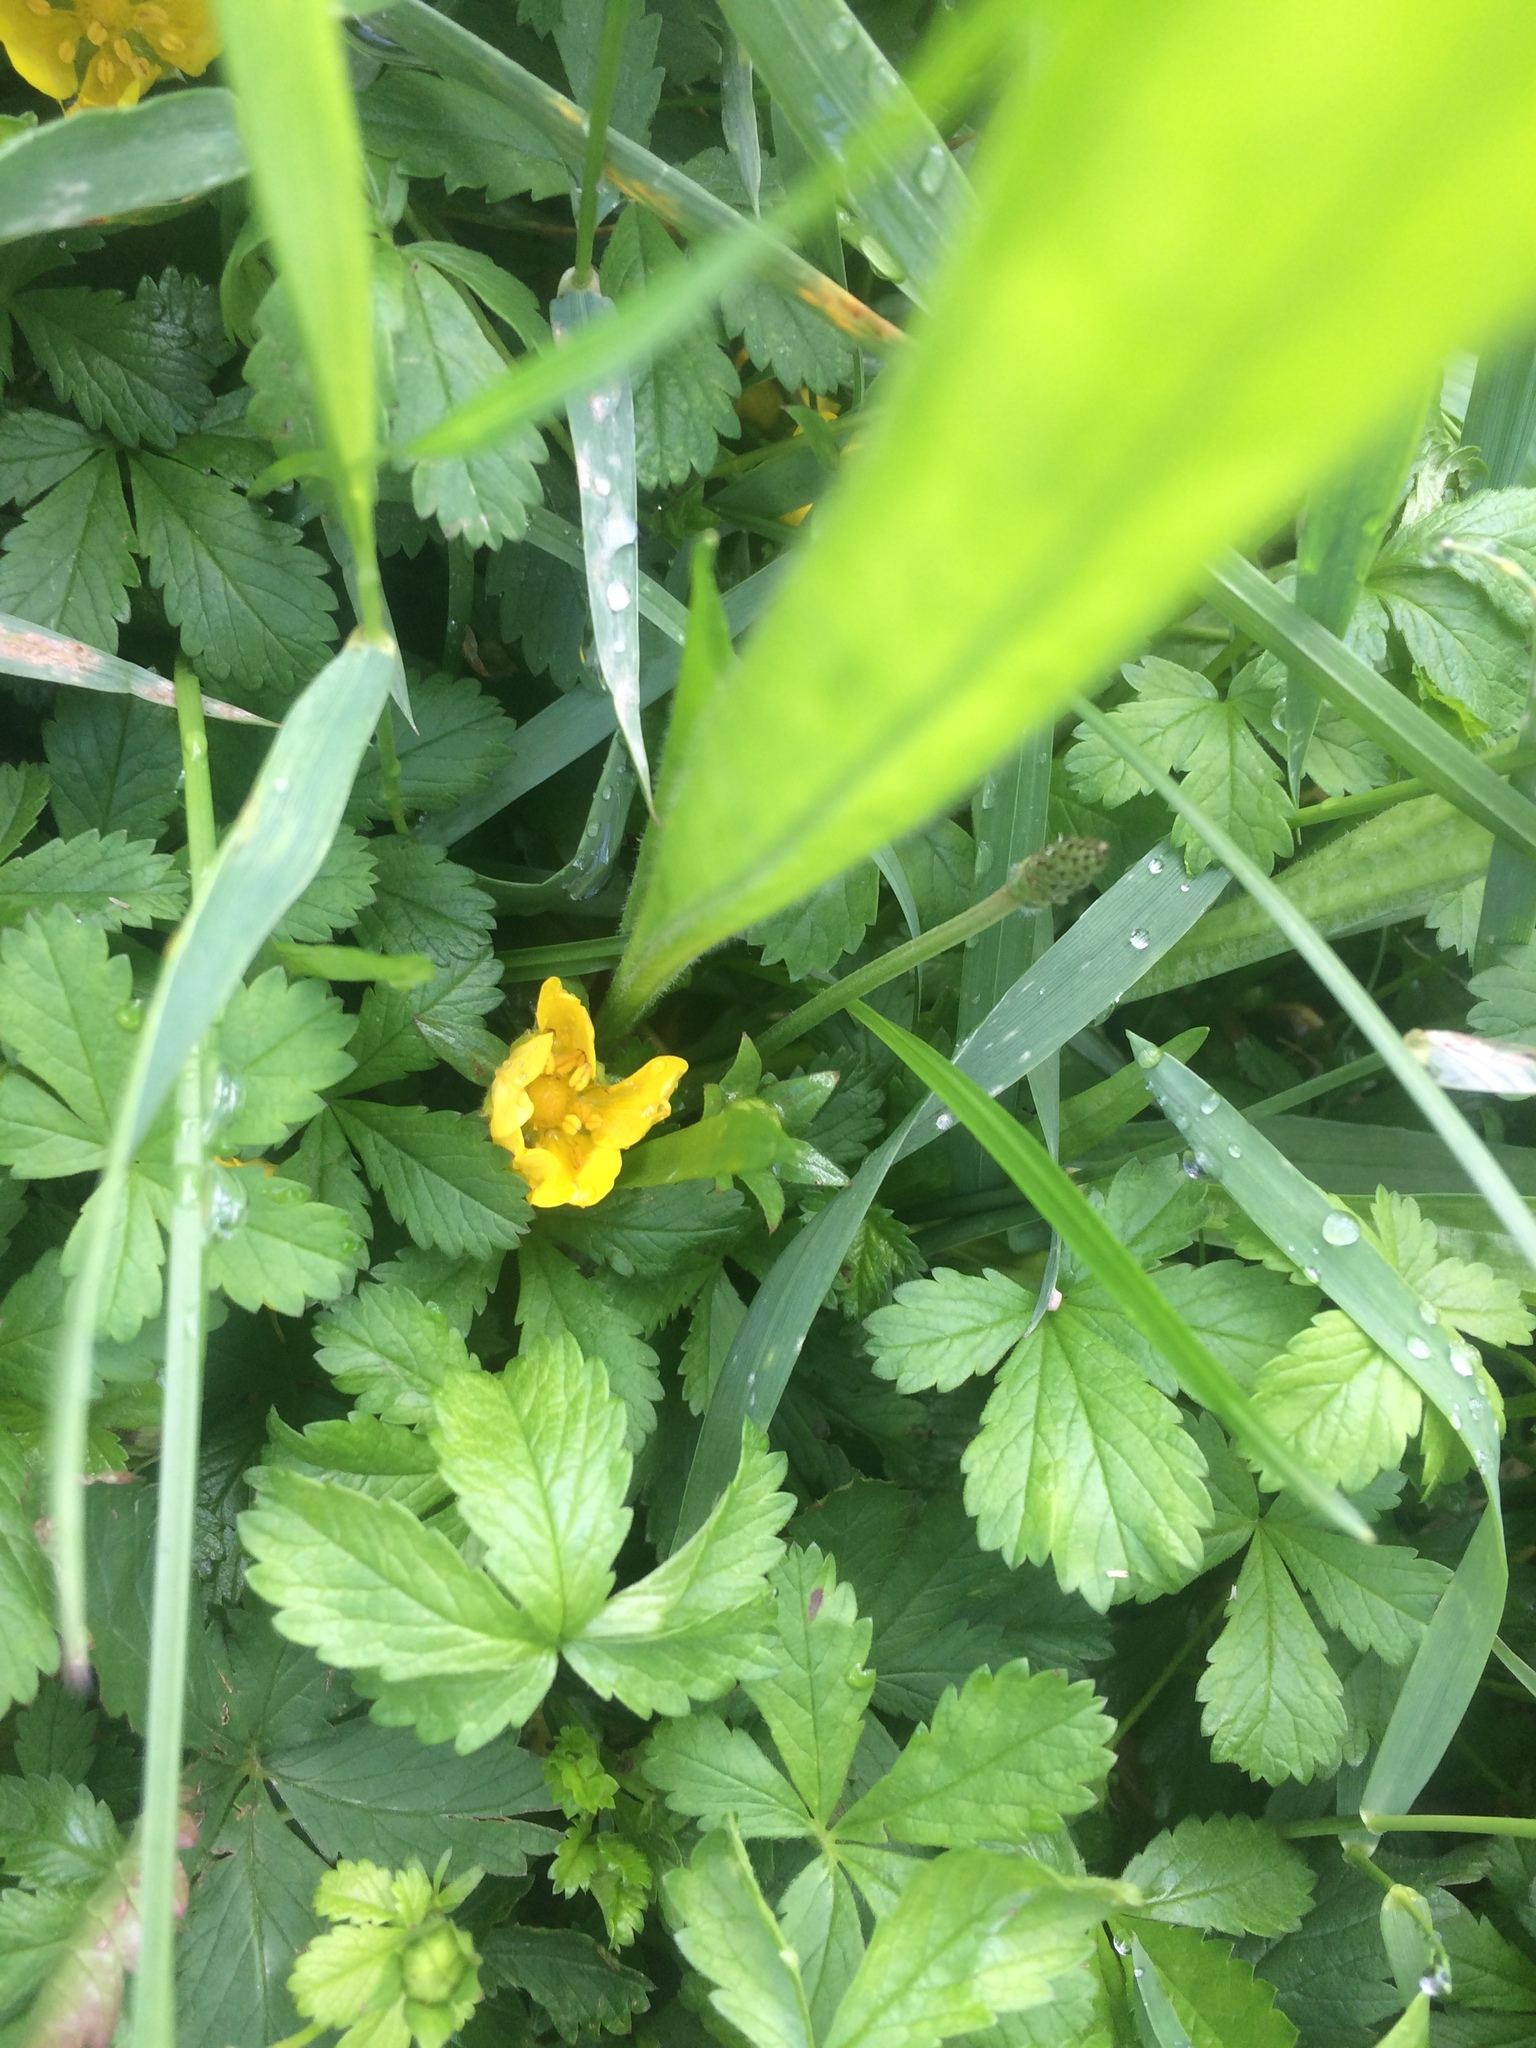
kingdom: Plantae
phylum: Tracheophyta
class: Magnoliopsida
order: Rosales
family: Rosaceae
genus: Potentilla
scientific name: Potentilla reptans
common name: Creeping cinquefoil
